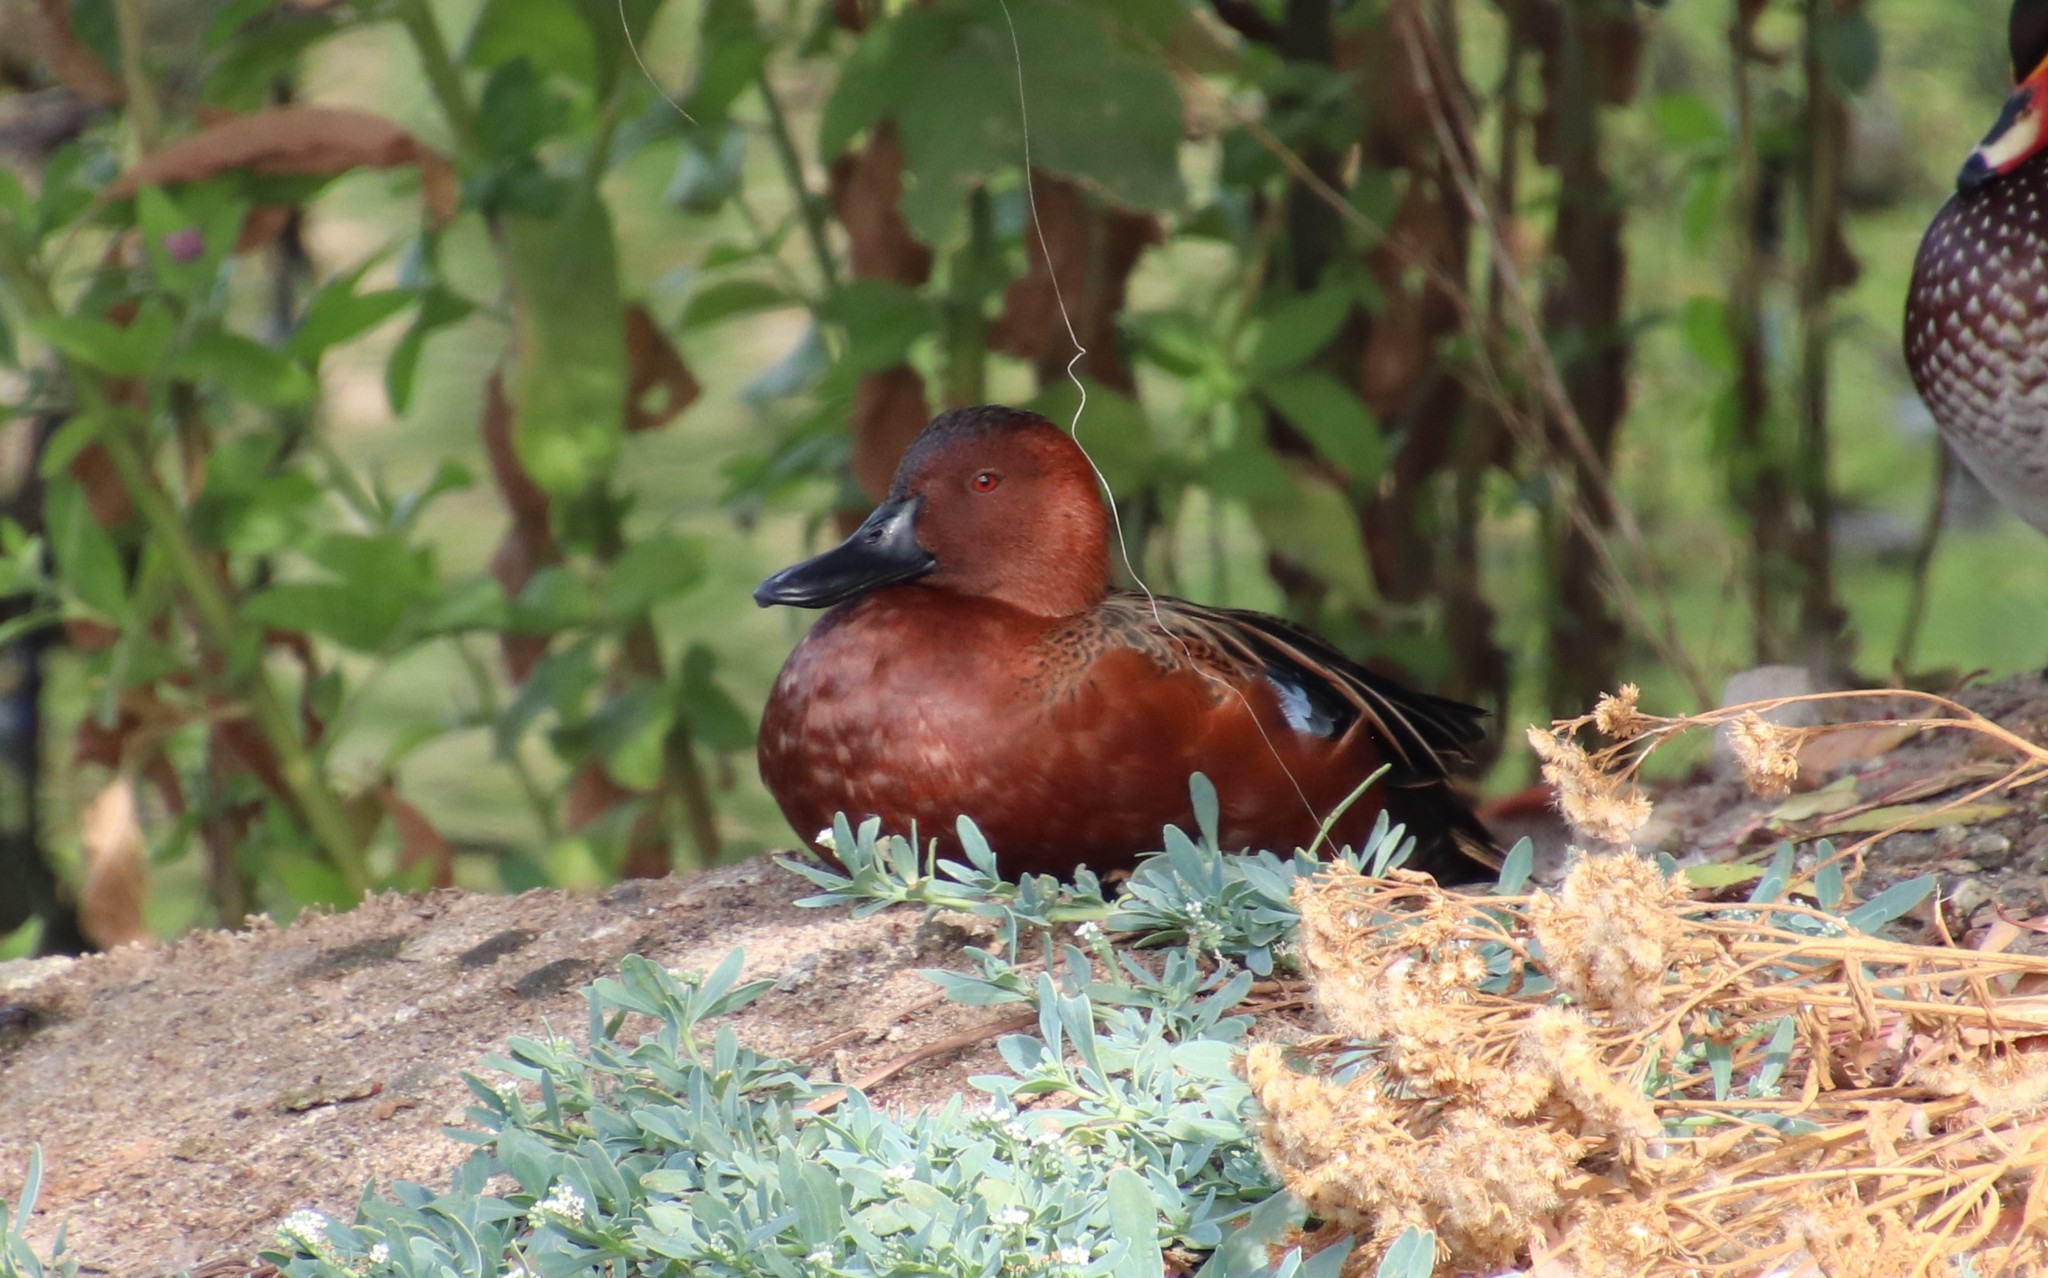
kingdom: Animalia
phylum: Chordata
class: Aves
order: Anseriformes
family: Anatidae
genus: Spatula
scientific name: Spatula cyanoptera
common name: Cinnamon teal
